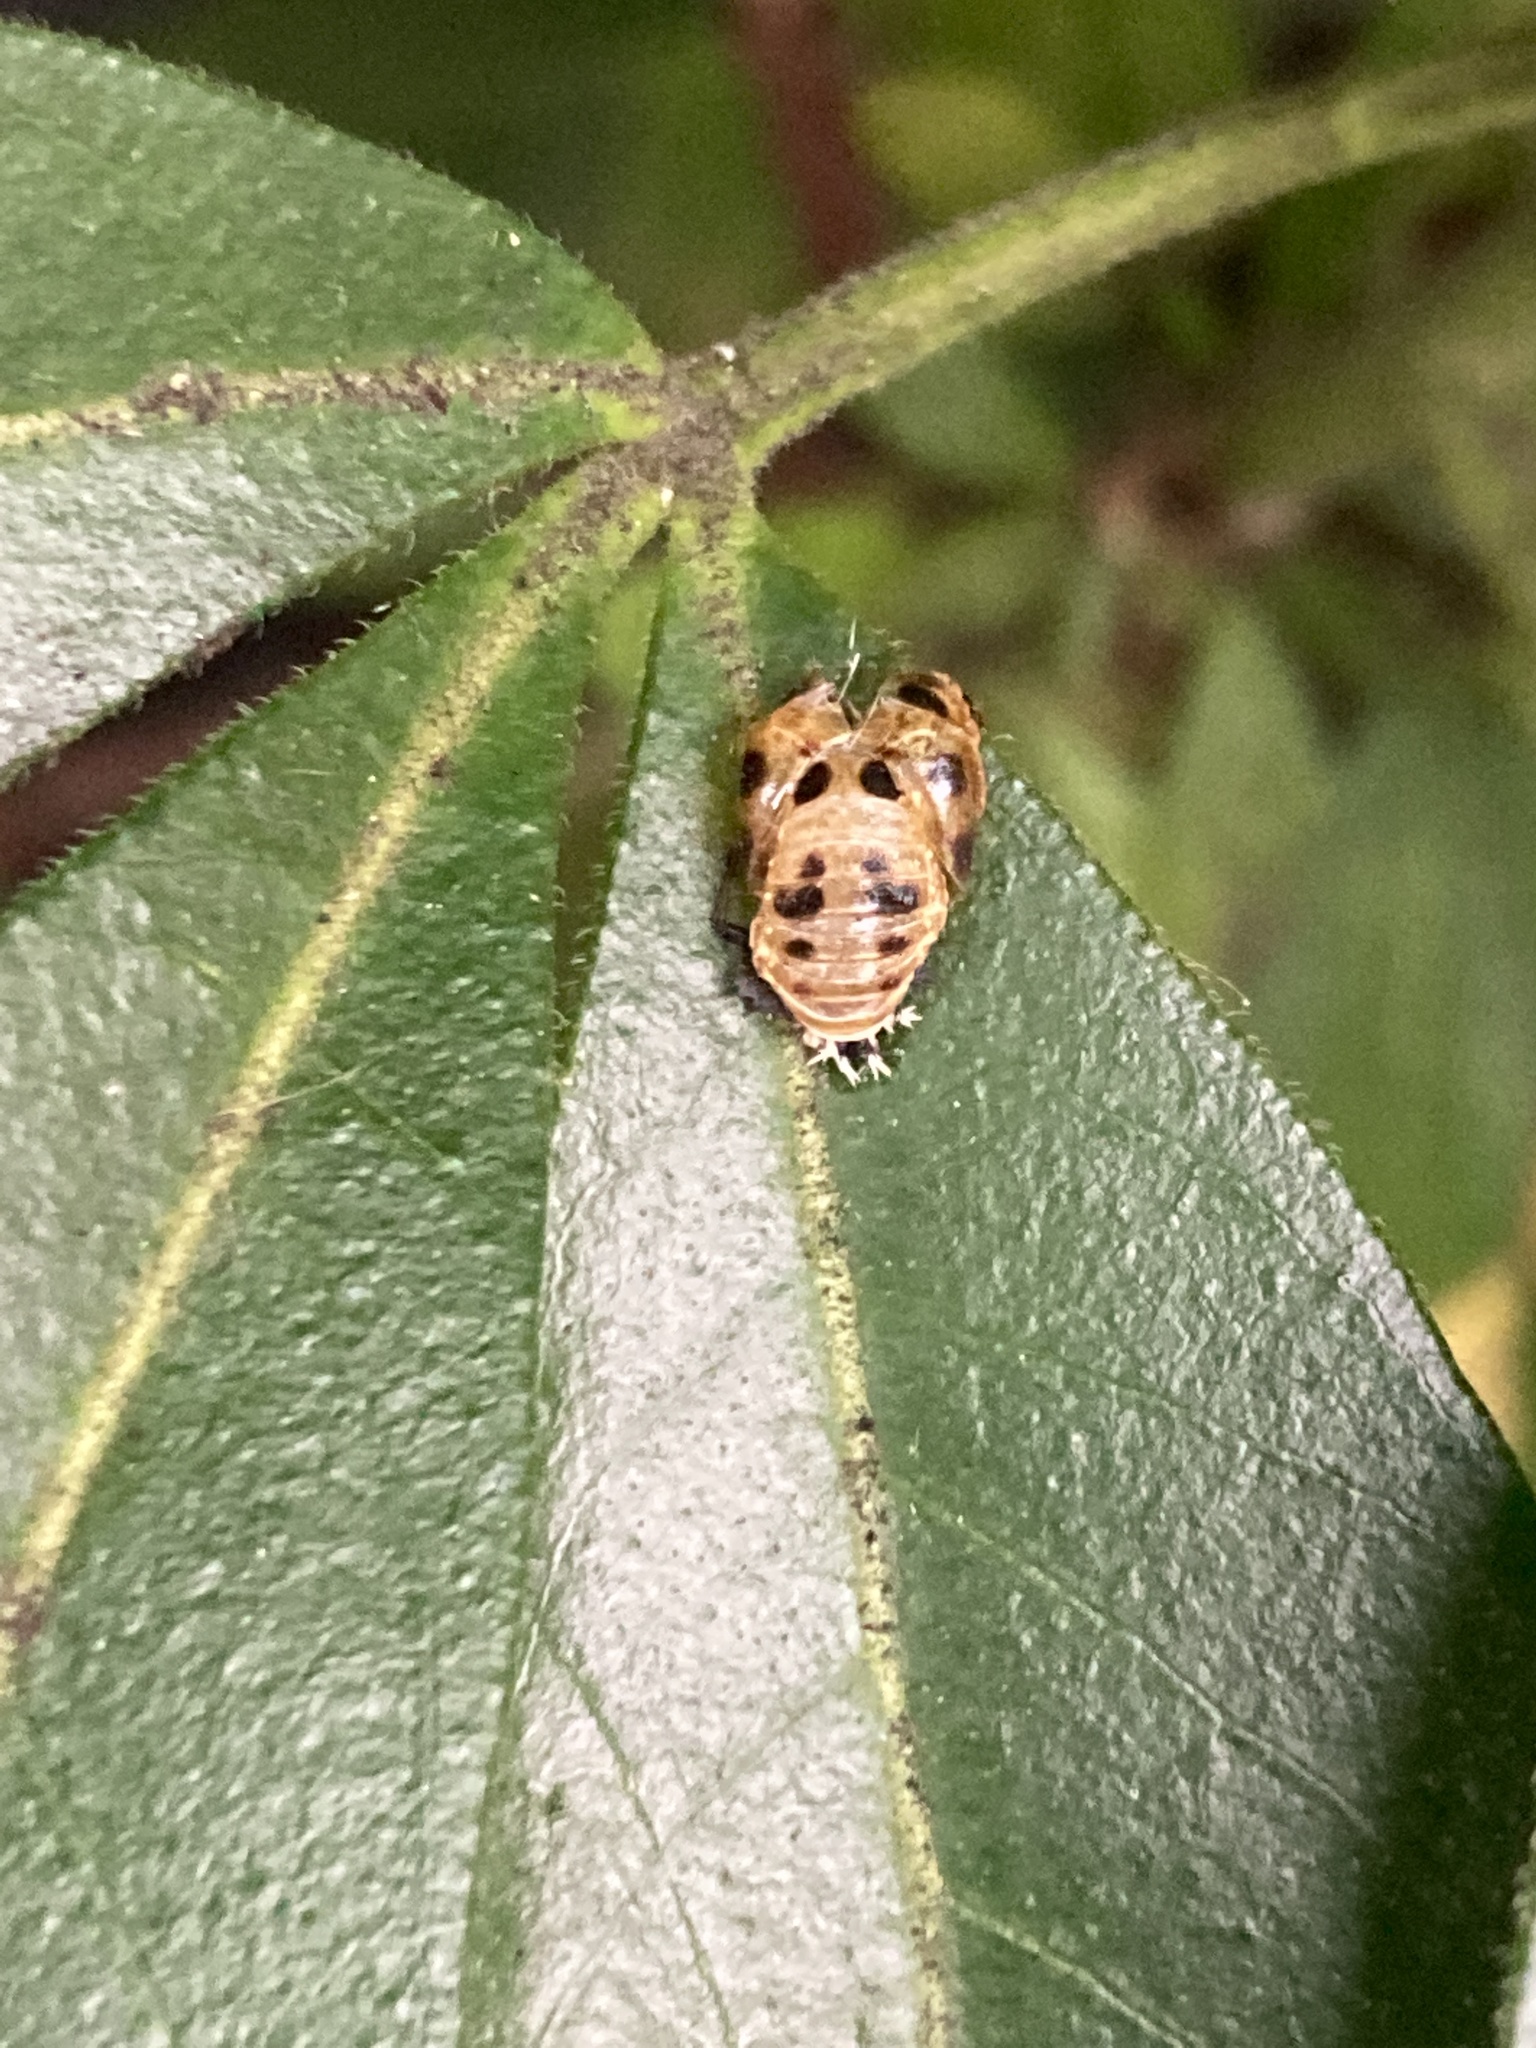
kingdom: Animalia
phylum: Arthropoda
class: Insecta
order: Coleoptera
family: Coccinellidae
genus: Harmonia
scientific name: Harmonia axyridis
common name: Harlequin ladybird
